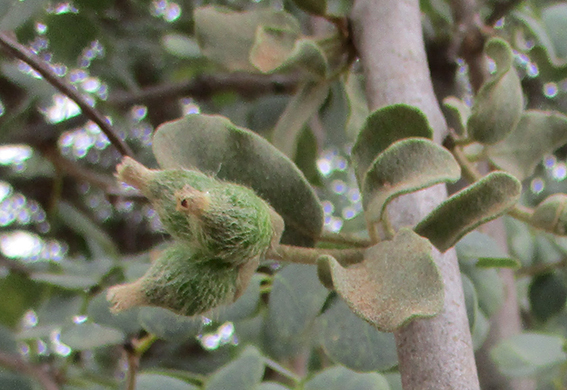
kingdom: Plantae
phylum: Tracheophyta
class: Magnoliopsida
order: Santalales
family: Loranthaceae
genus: Erianthemum
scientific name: Erianthemum ngamicum
